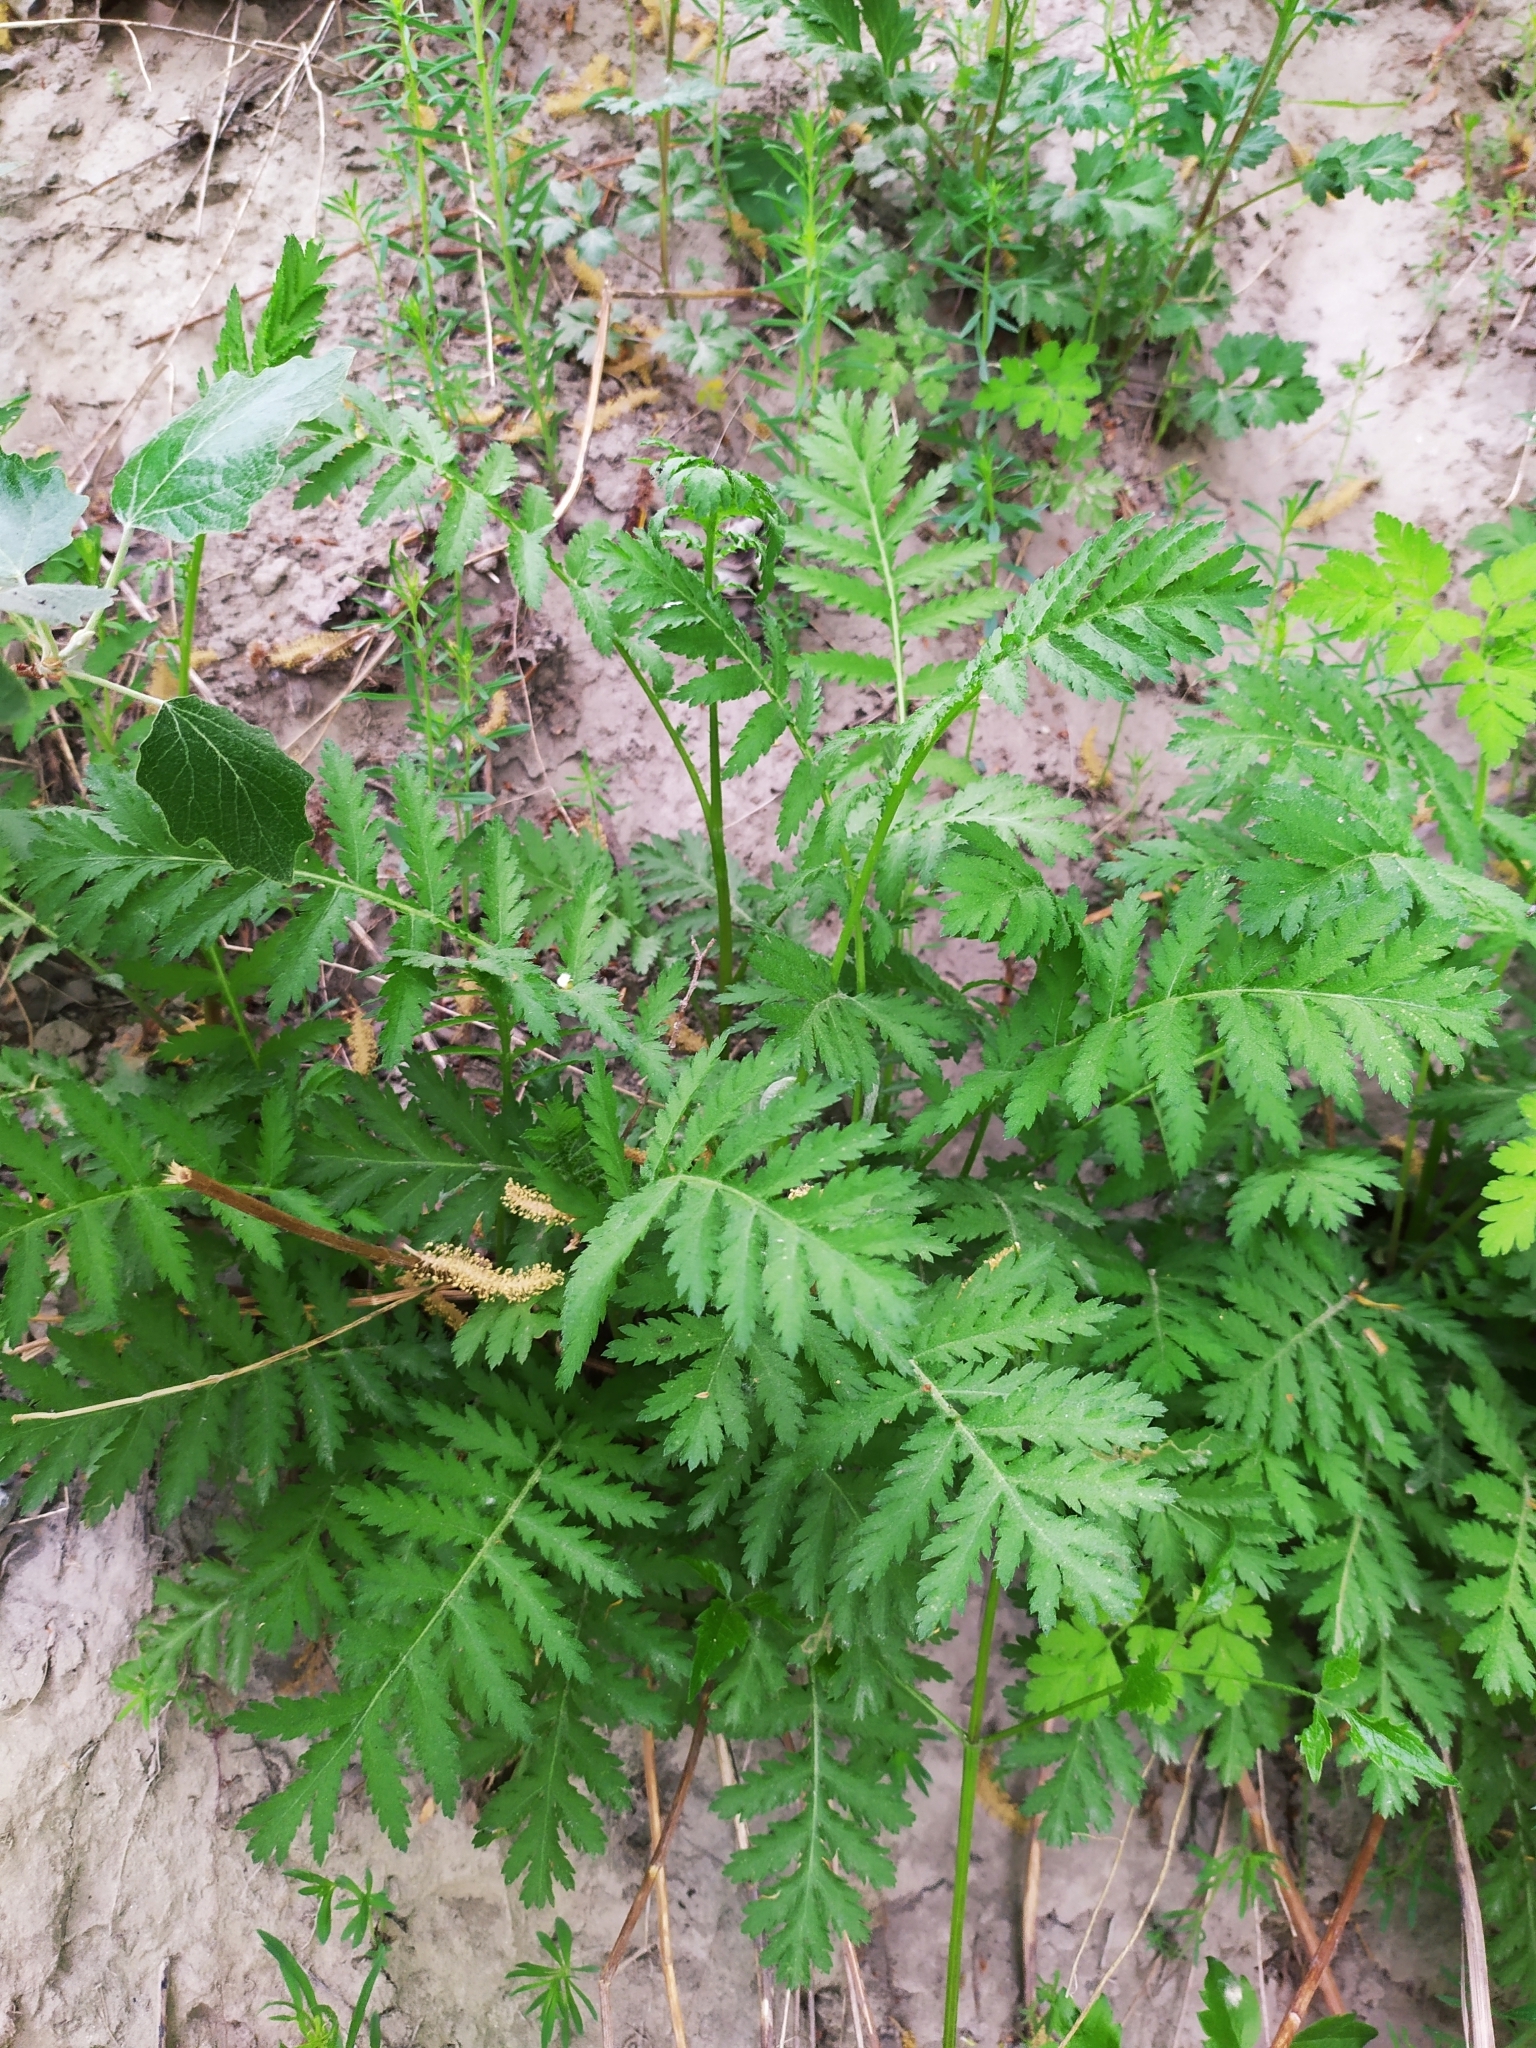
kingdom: Plantae
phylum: Tracheophyta
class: Magnoliopsida
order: Asterales
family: Asteraceae
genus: Tanacetum
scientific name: Tanacetum vulgare
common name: Common tansy
